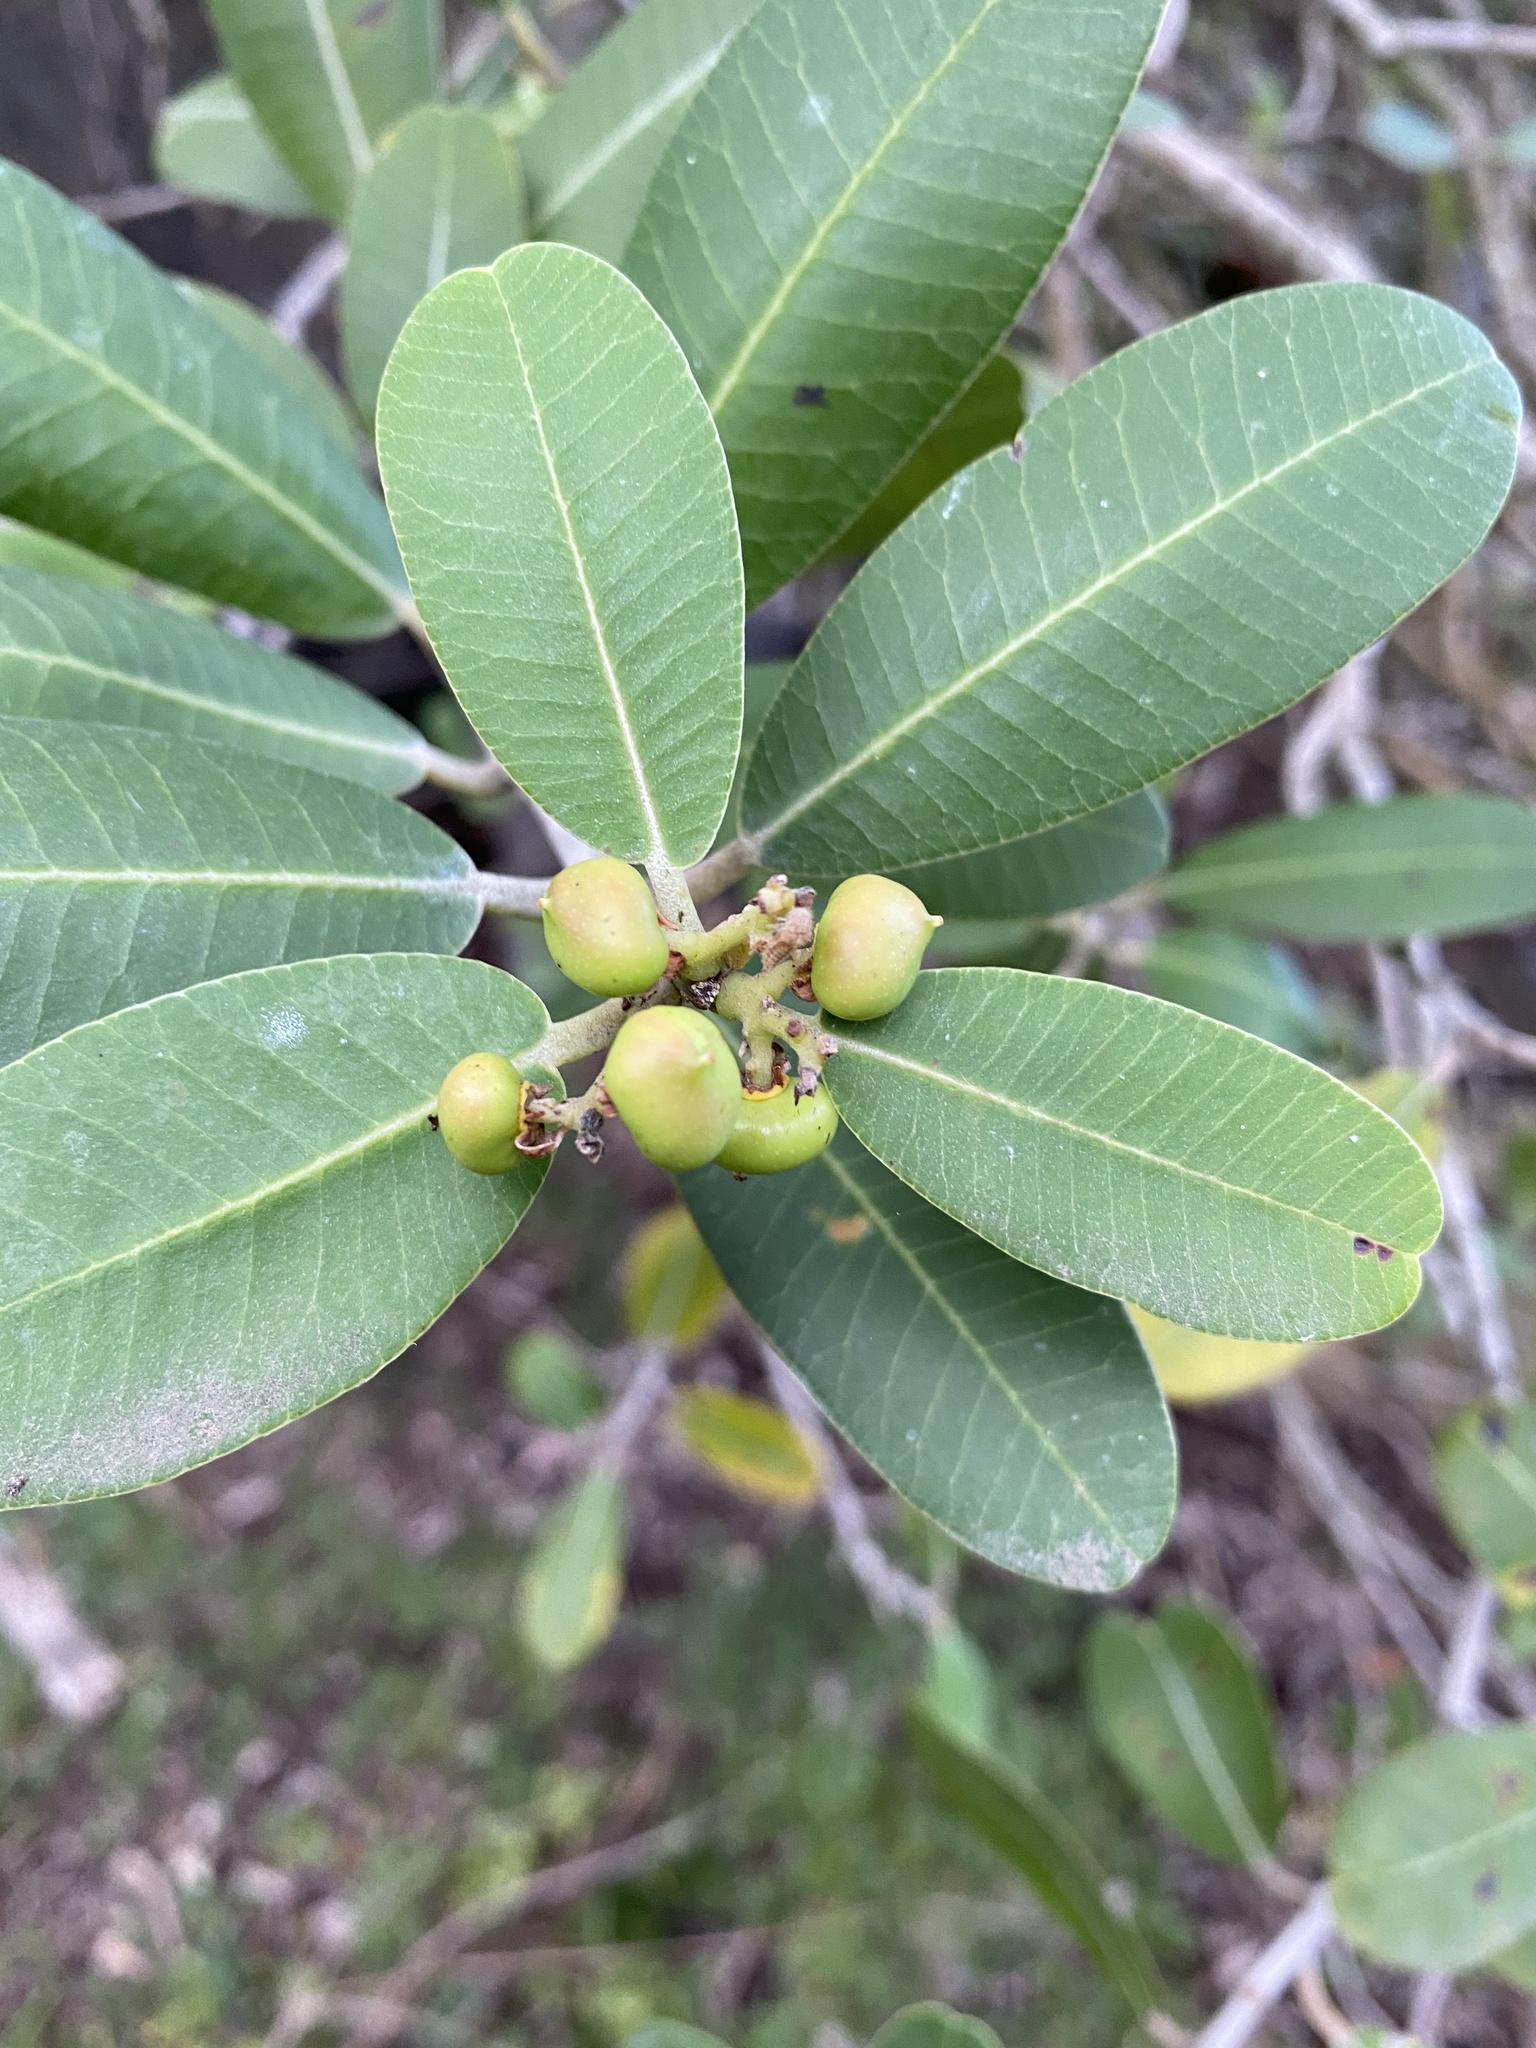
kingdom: Plantae
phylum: Tracheophyta
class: Magnoliopsida
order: Sapindales
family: Anacardiaceae
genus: Heeria
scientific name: Heeria argentea
